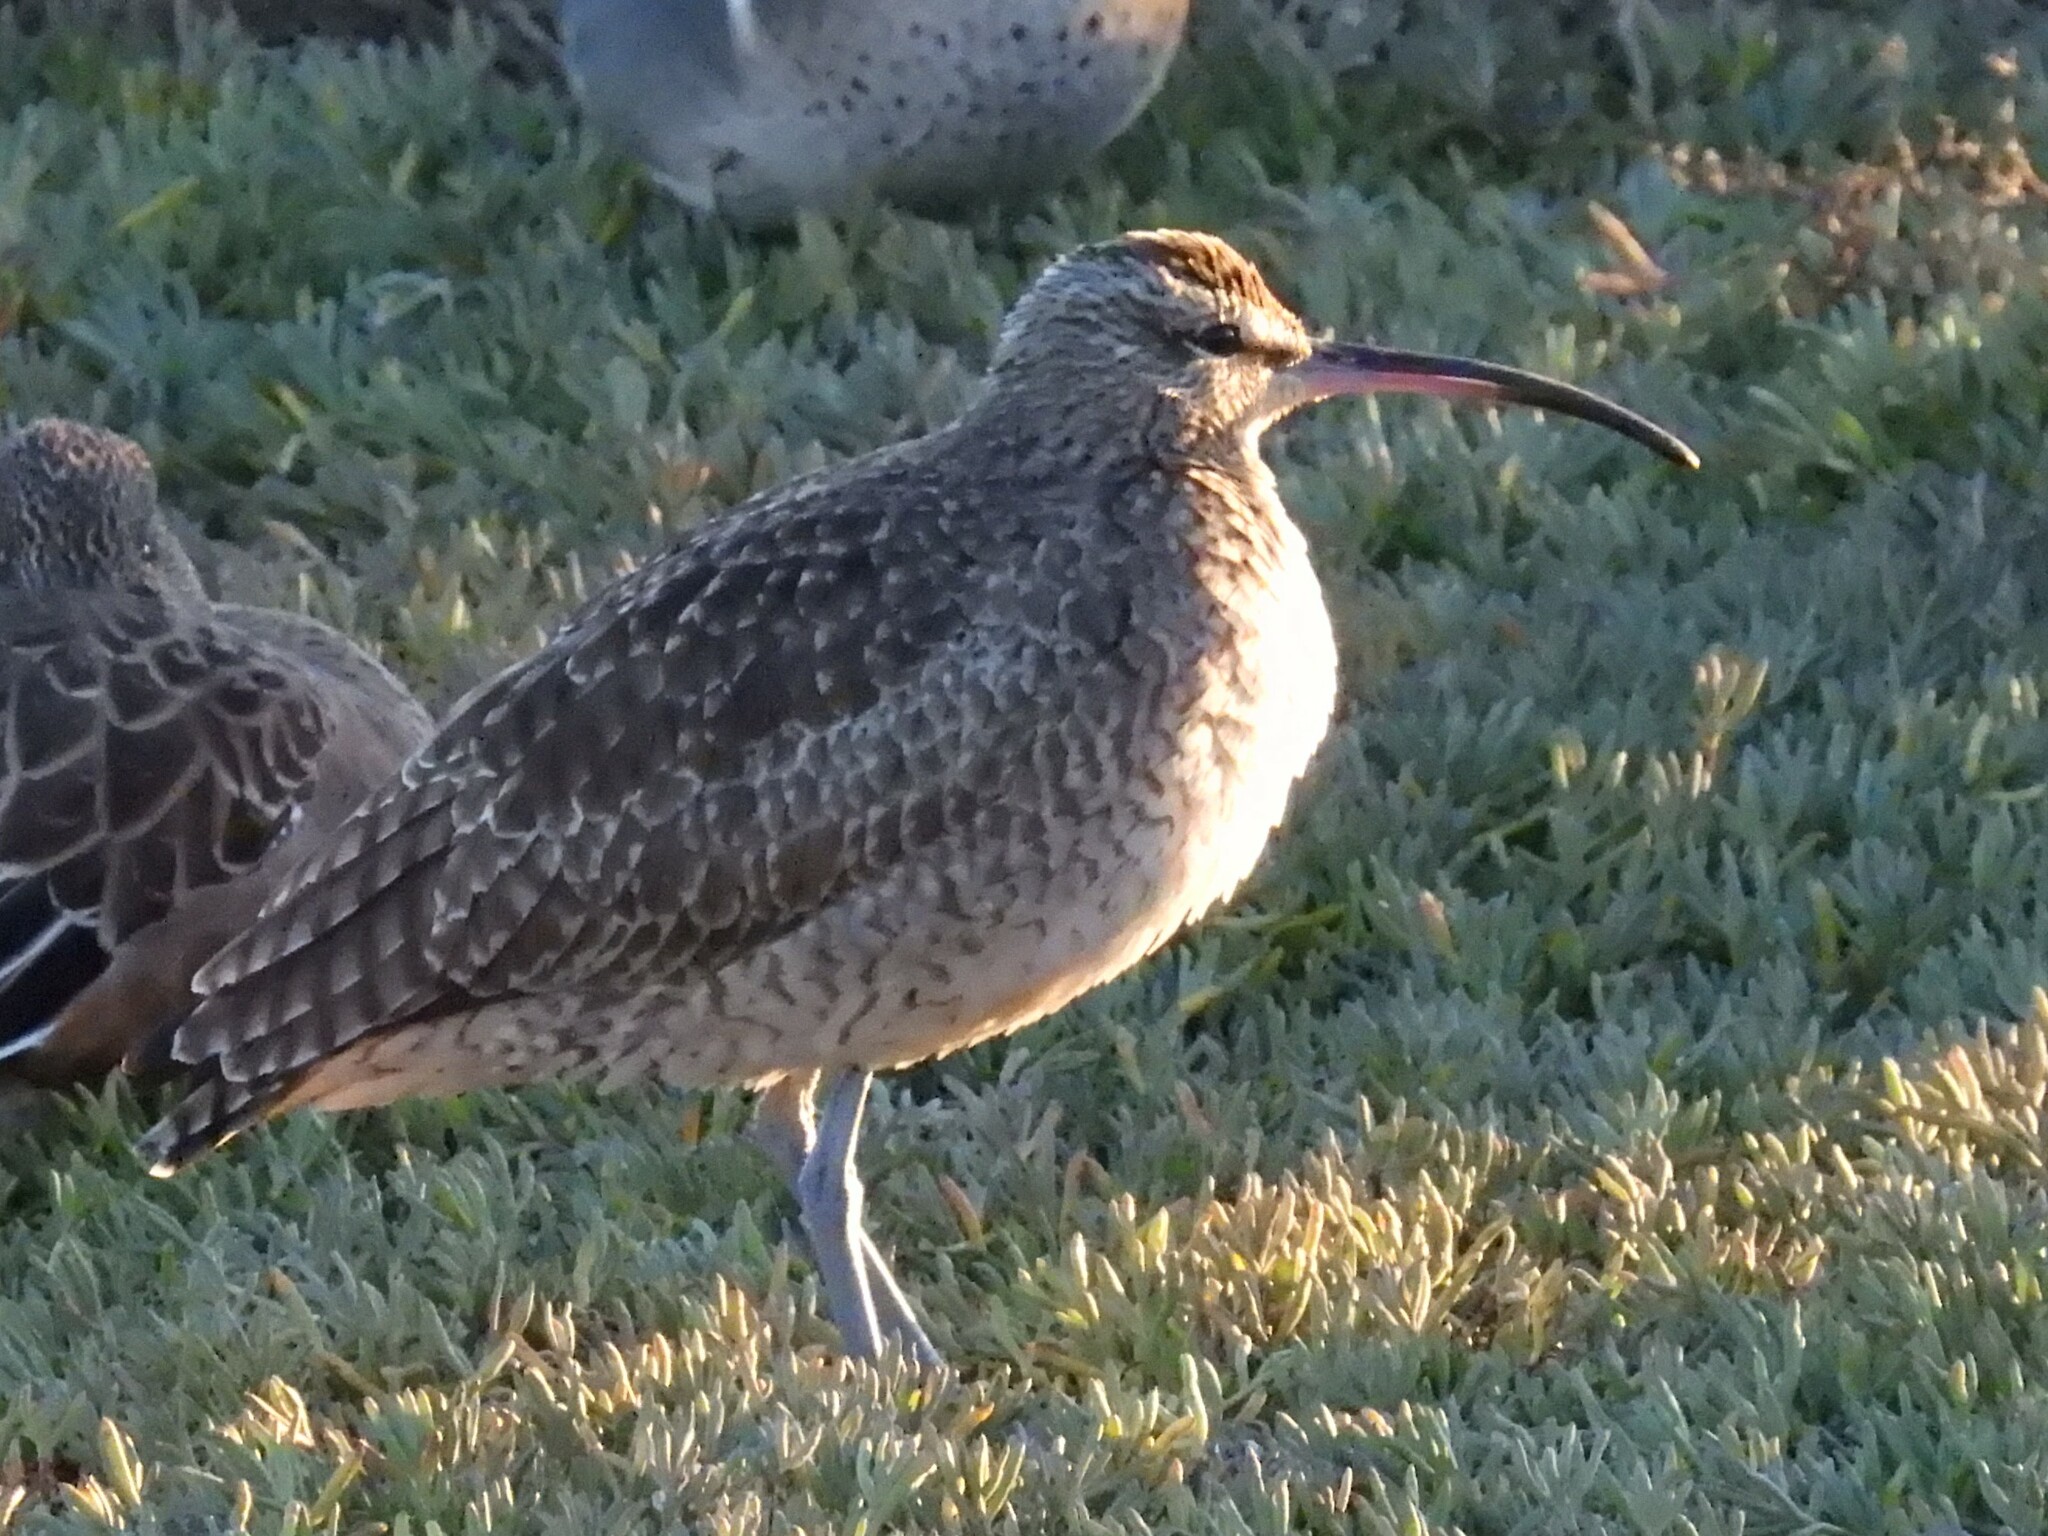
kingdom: Animalia
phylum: Chordata
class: Aves
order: Charadriiformes
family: Scolopacidae
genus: Numenius
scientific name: Numenius phaeopus
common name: Whimbrel
